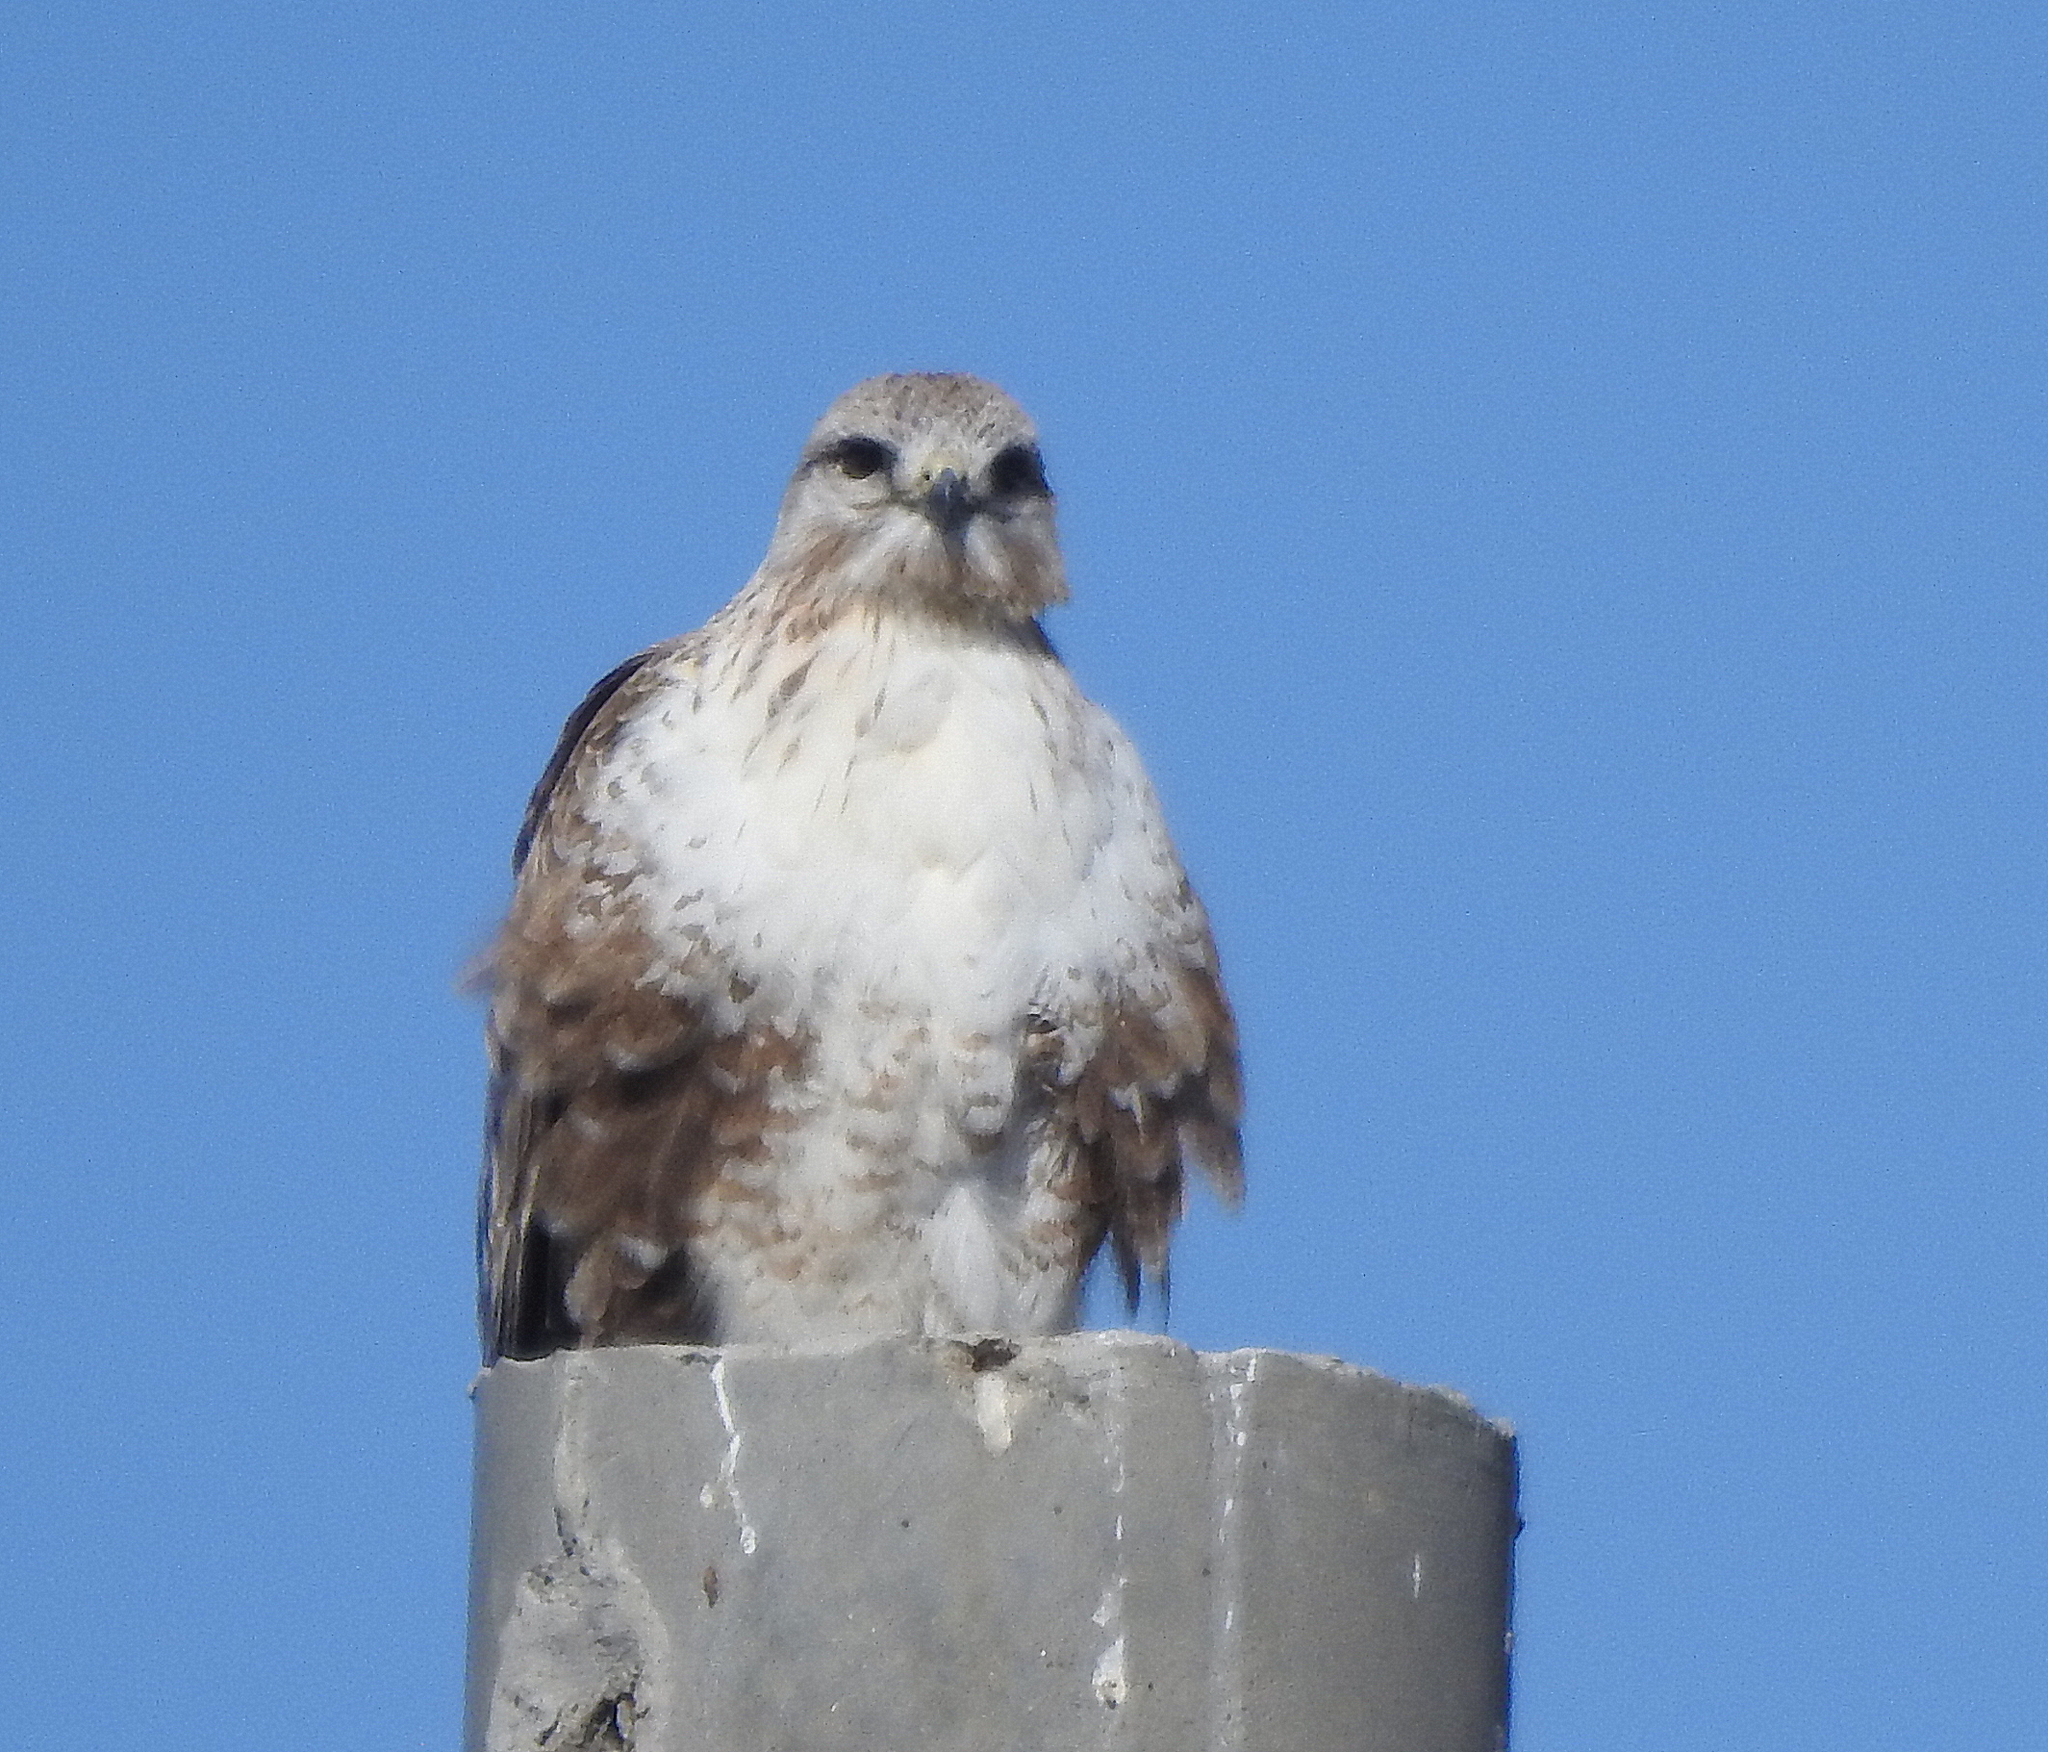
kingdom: Animalia
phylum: Chordata
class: Aves
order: Accipitriformes
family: Accipitridae
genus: Buteo
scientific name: Buteo hemilasius
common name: Upland buzzard
